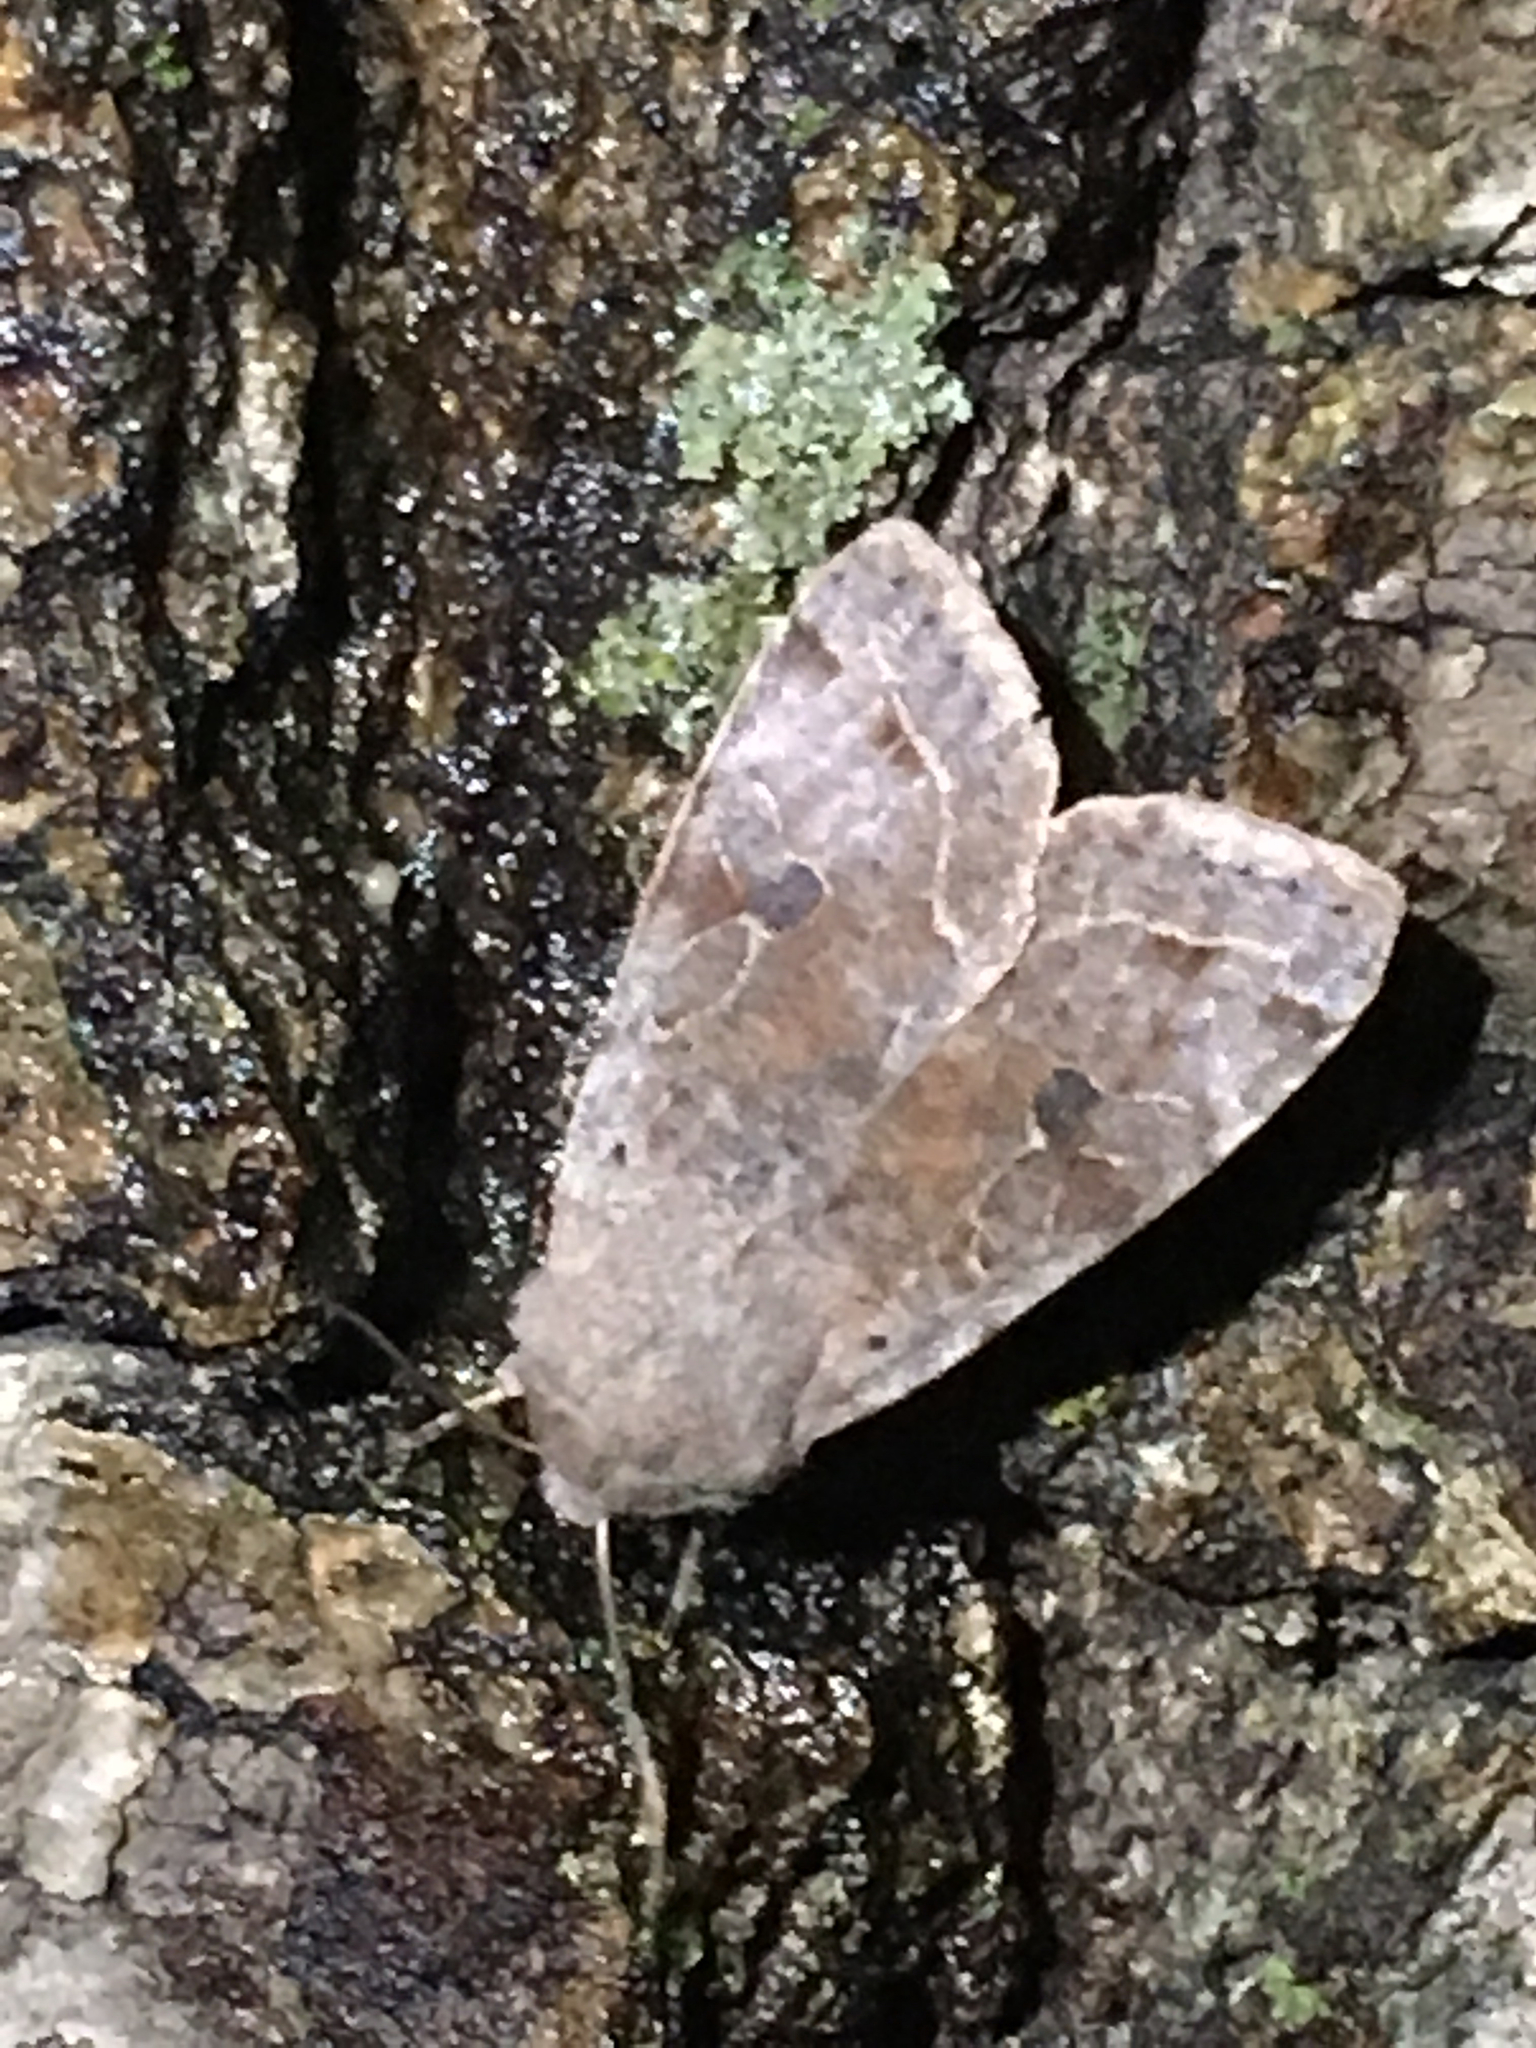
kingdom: Animalia
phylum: Arthropoda
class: Insecta
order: Lepidoptera
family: Noctuidae
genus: Orthosia
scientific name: Orthosia hibisci
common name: Green fruitworm
